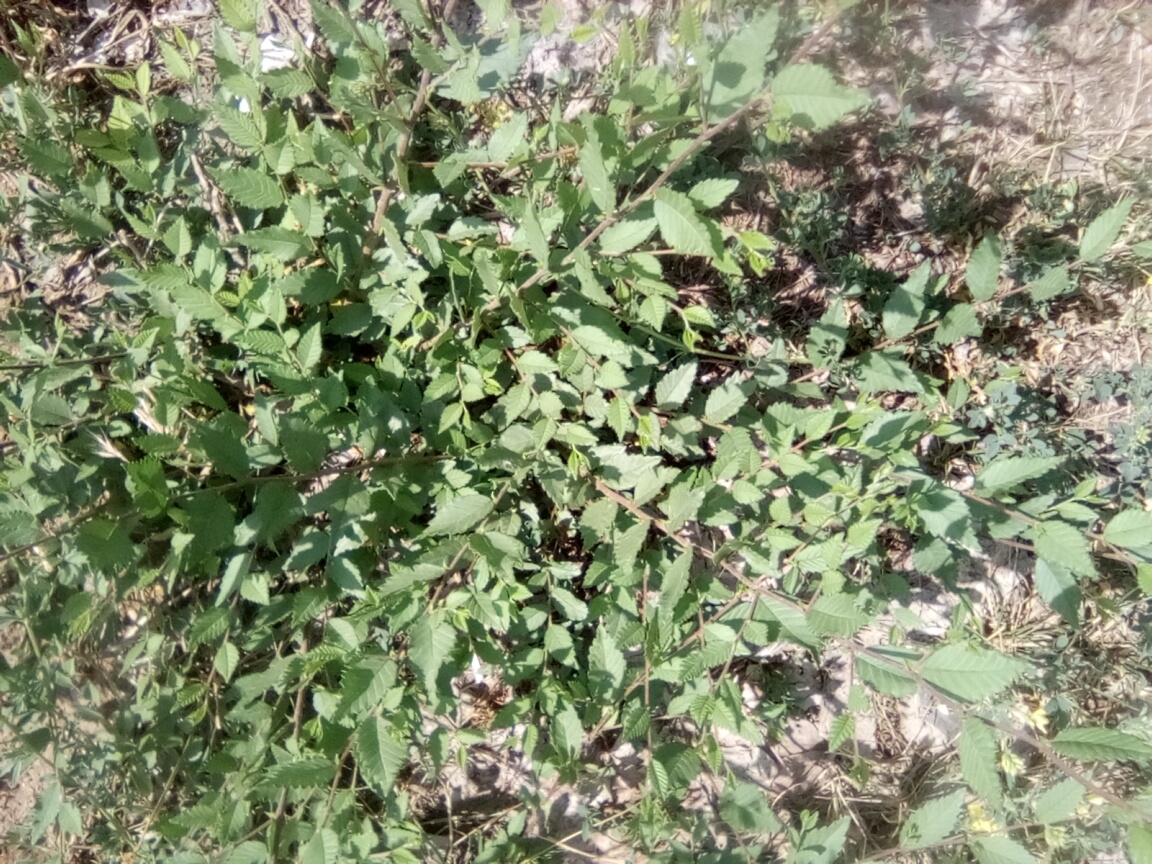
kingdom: Plantae
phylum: Tracheophyta
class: Magnoliopsida
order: Rosales
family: Ulmaceae
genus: Ulmus
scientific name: Ulmus pumila
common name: Siberian elm
